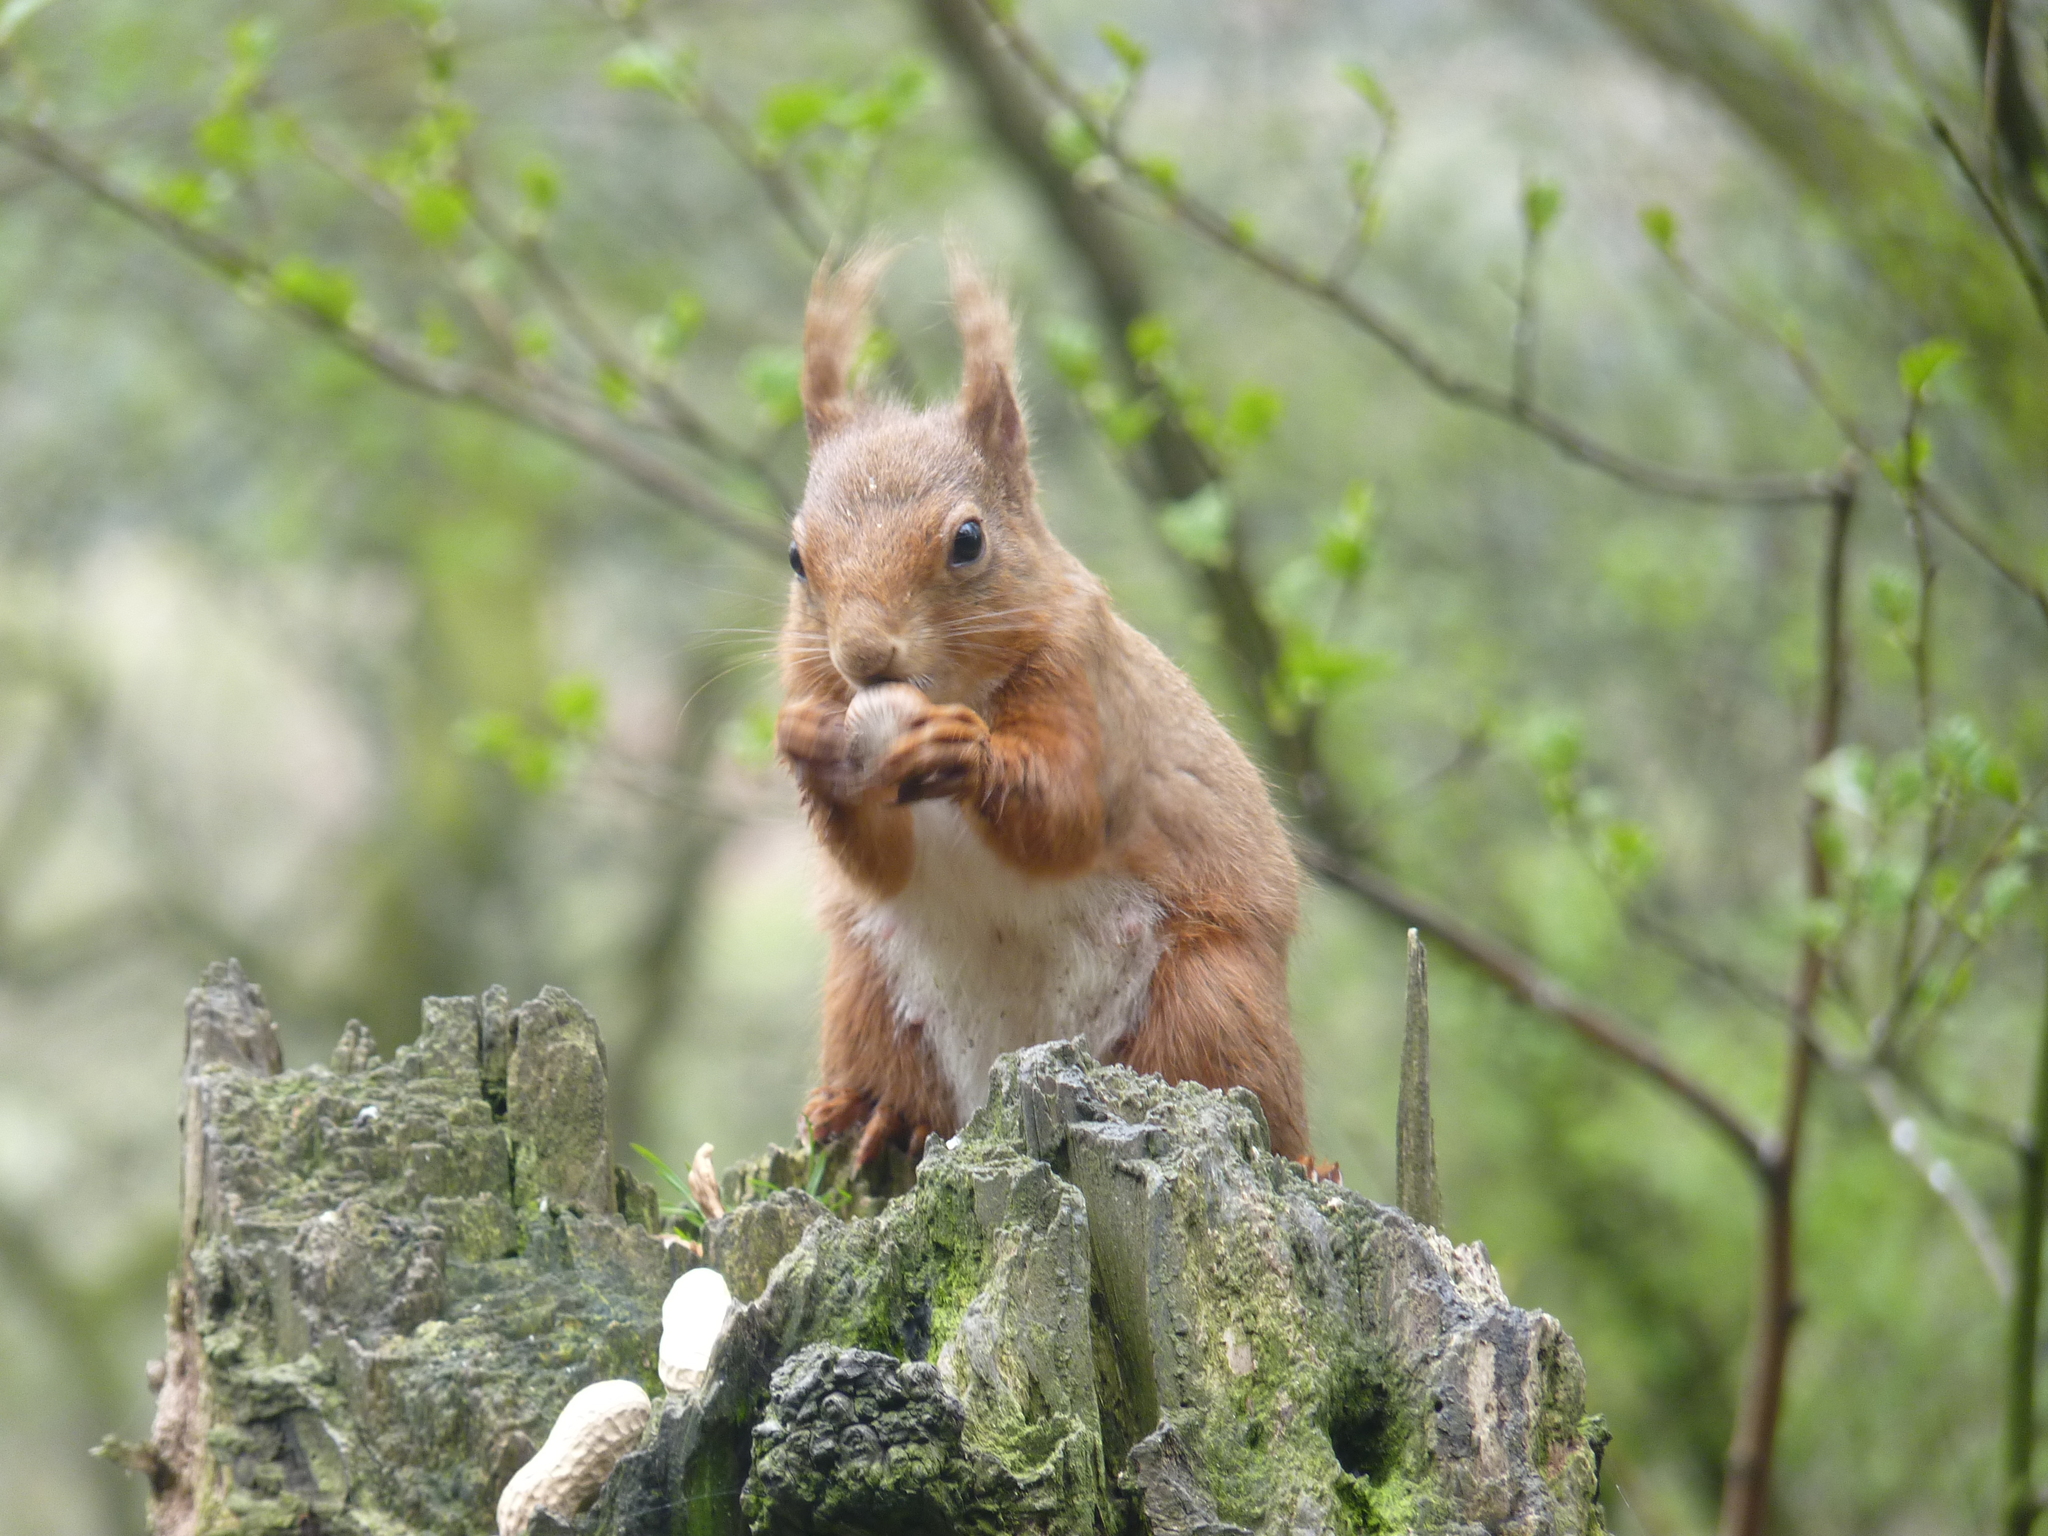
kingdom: Animalia
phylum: Chordata
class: Mammalia
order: Rodentia
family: Sciuridae
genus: Sciurus
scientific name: Sciurus vulgaris
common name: Eurasian red squirrel
